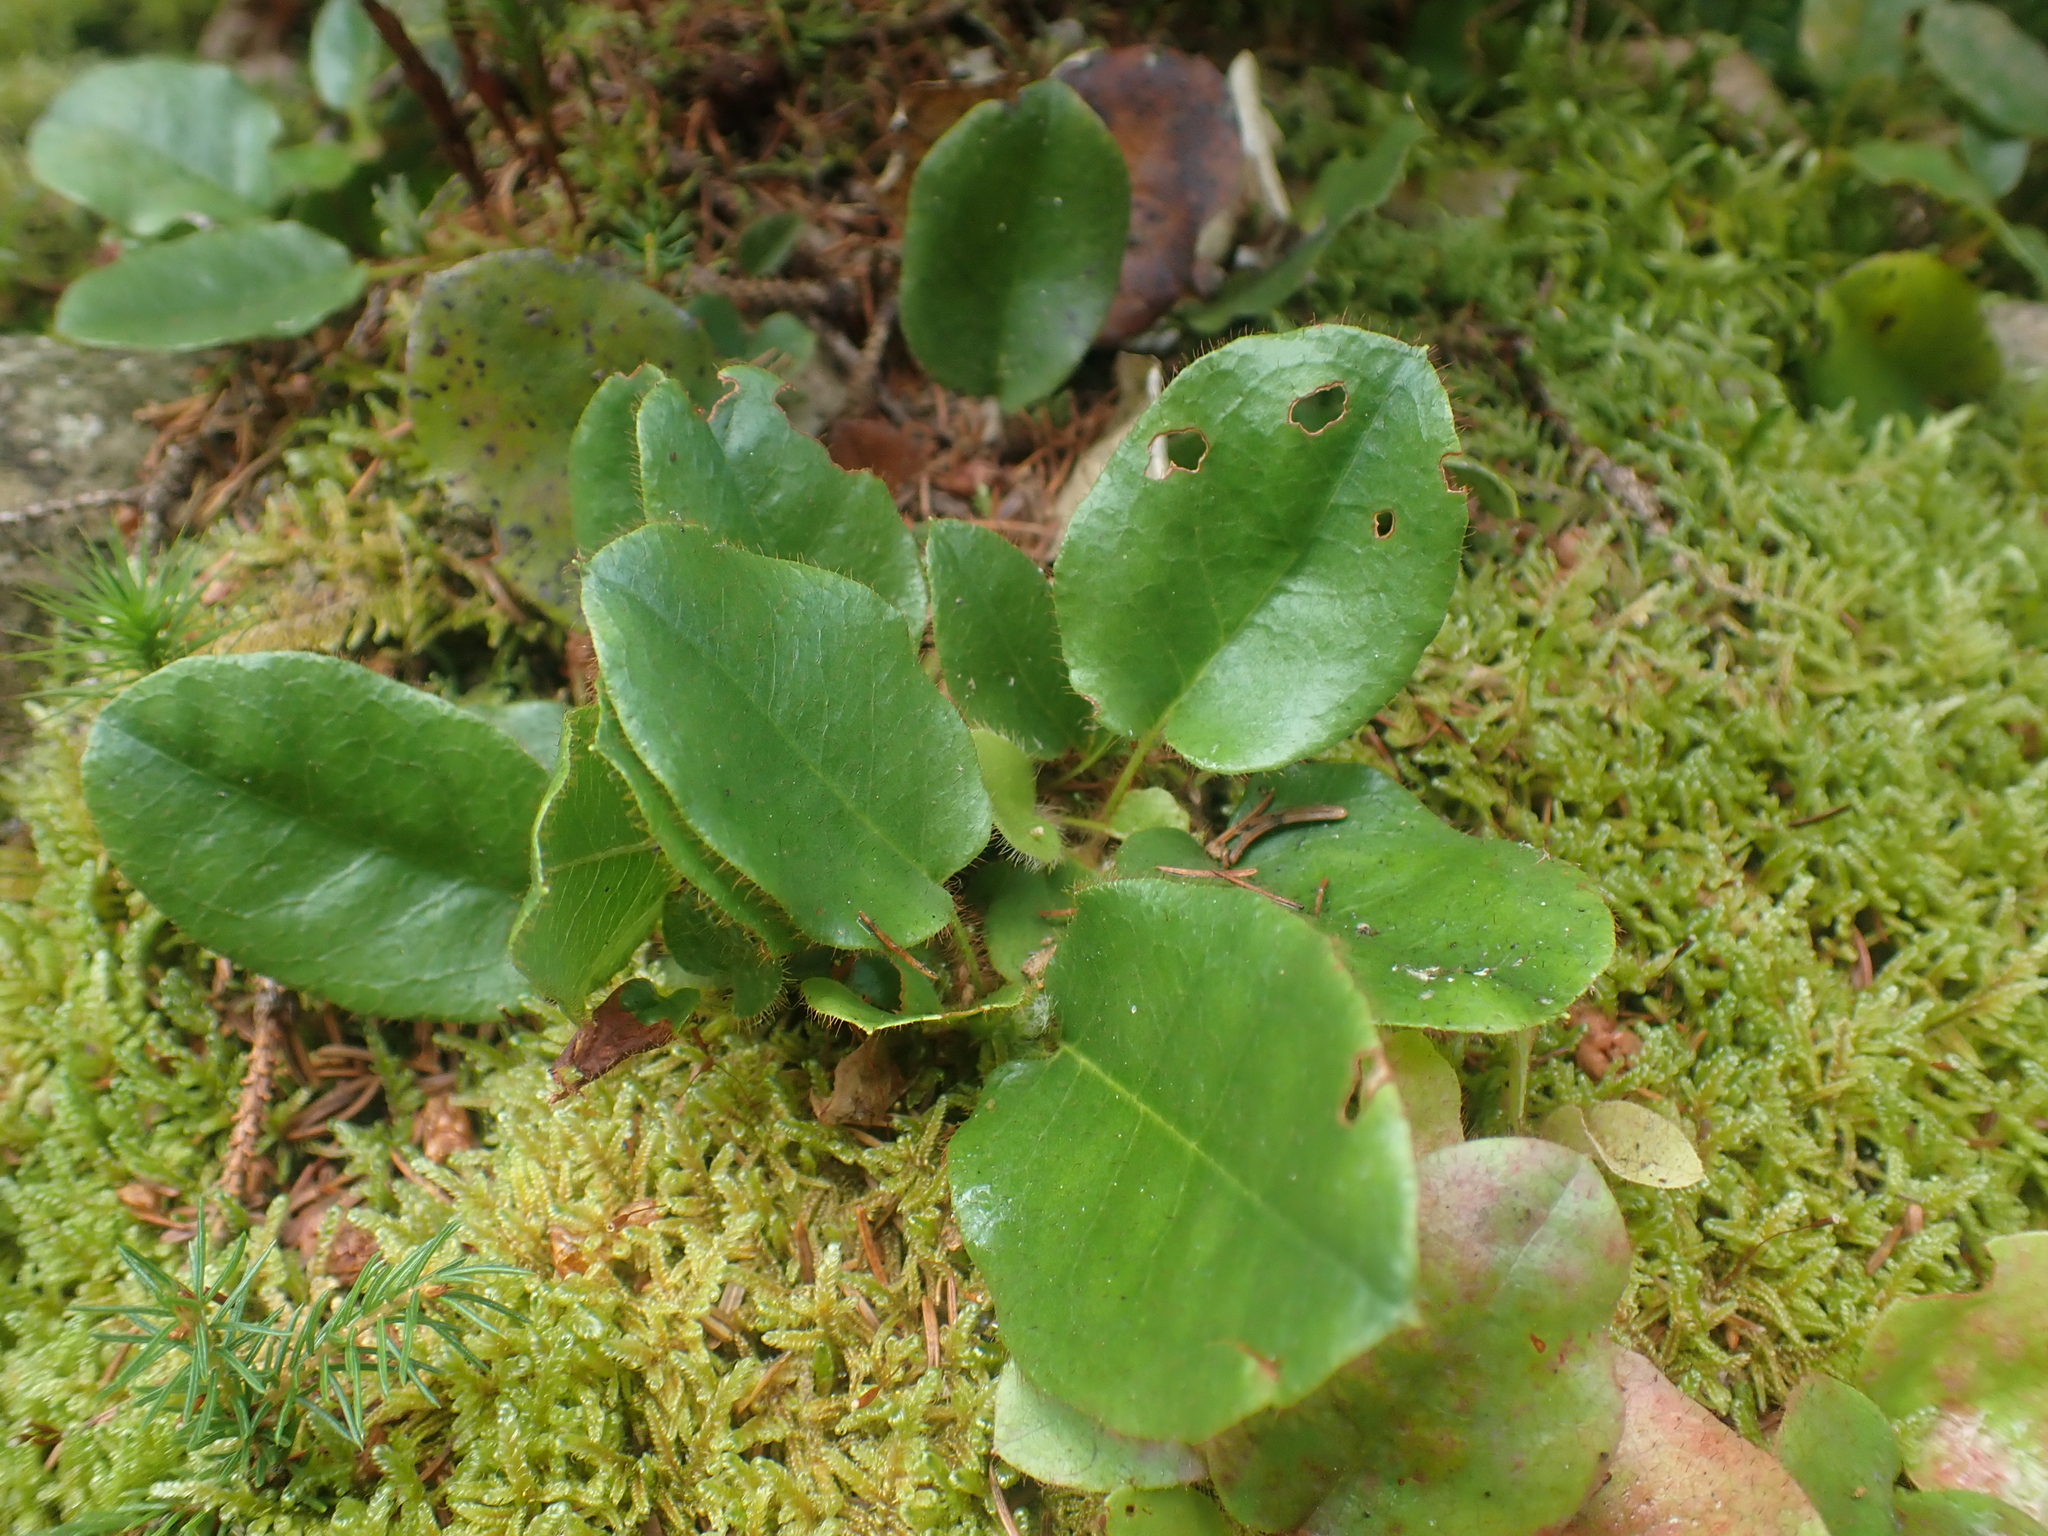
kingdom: Plantae
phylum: Tracheophyta
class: Magnoliopsida
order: Ericales
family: Ericaceae
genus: Epigaea
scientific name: Epigaea repens
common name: Gravelroot
